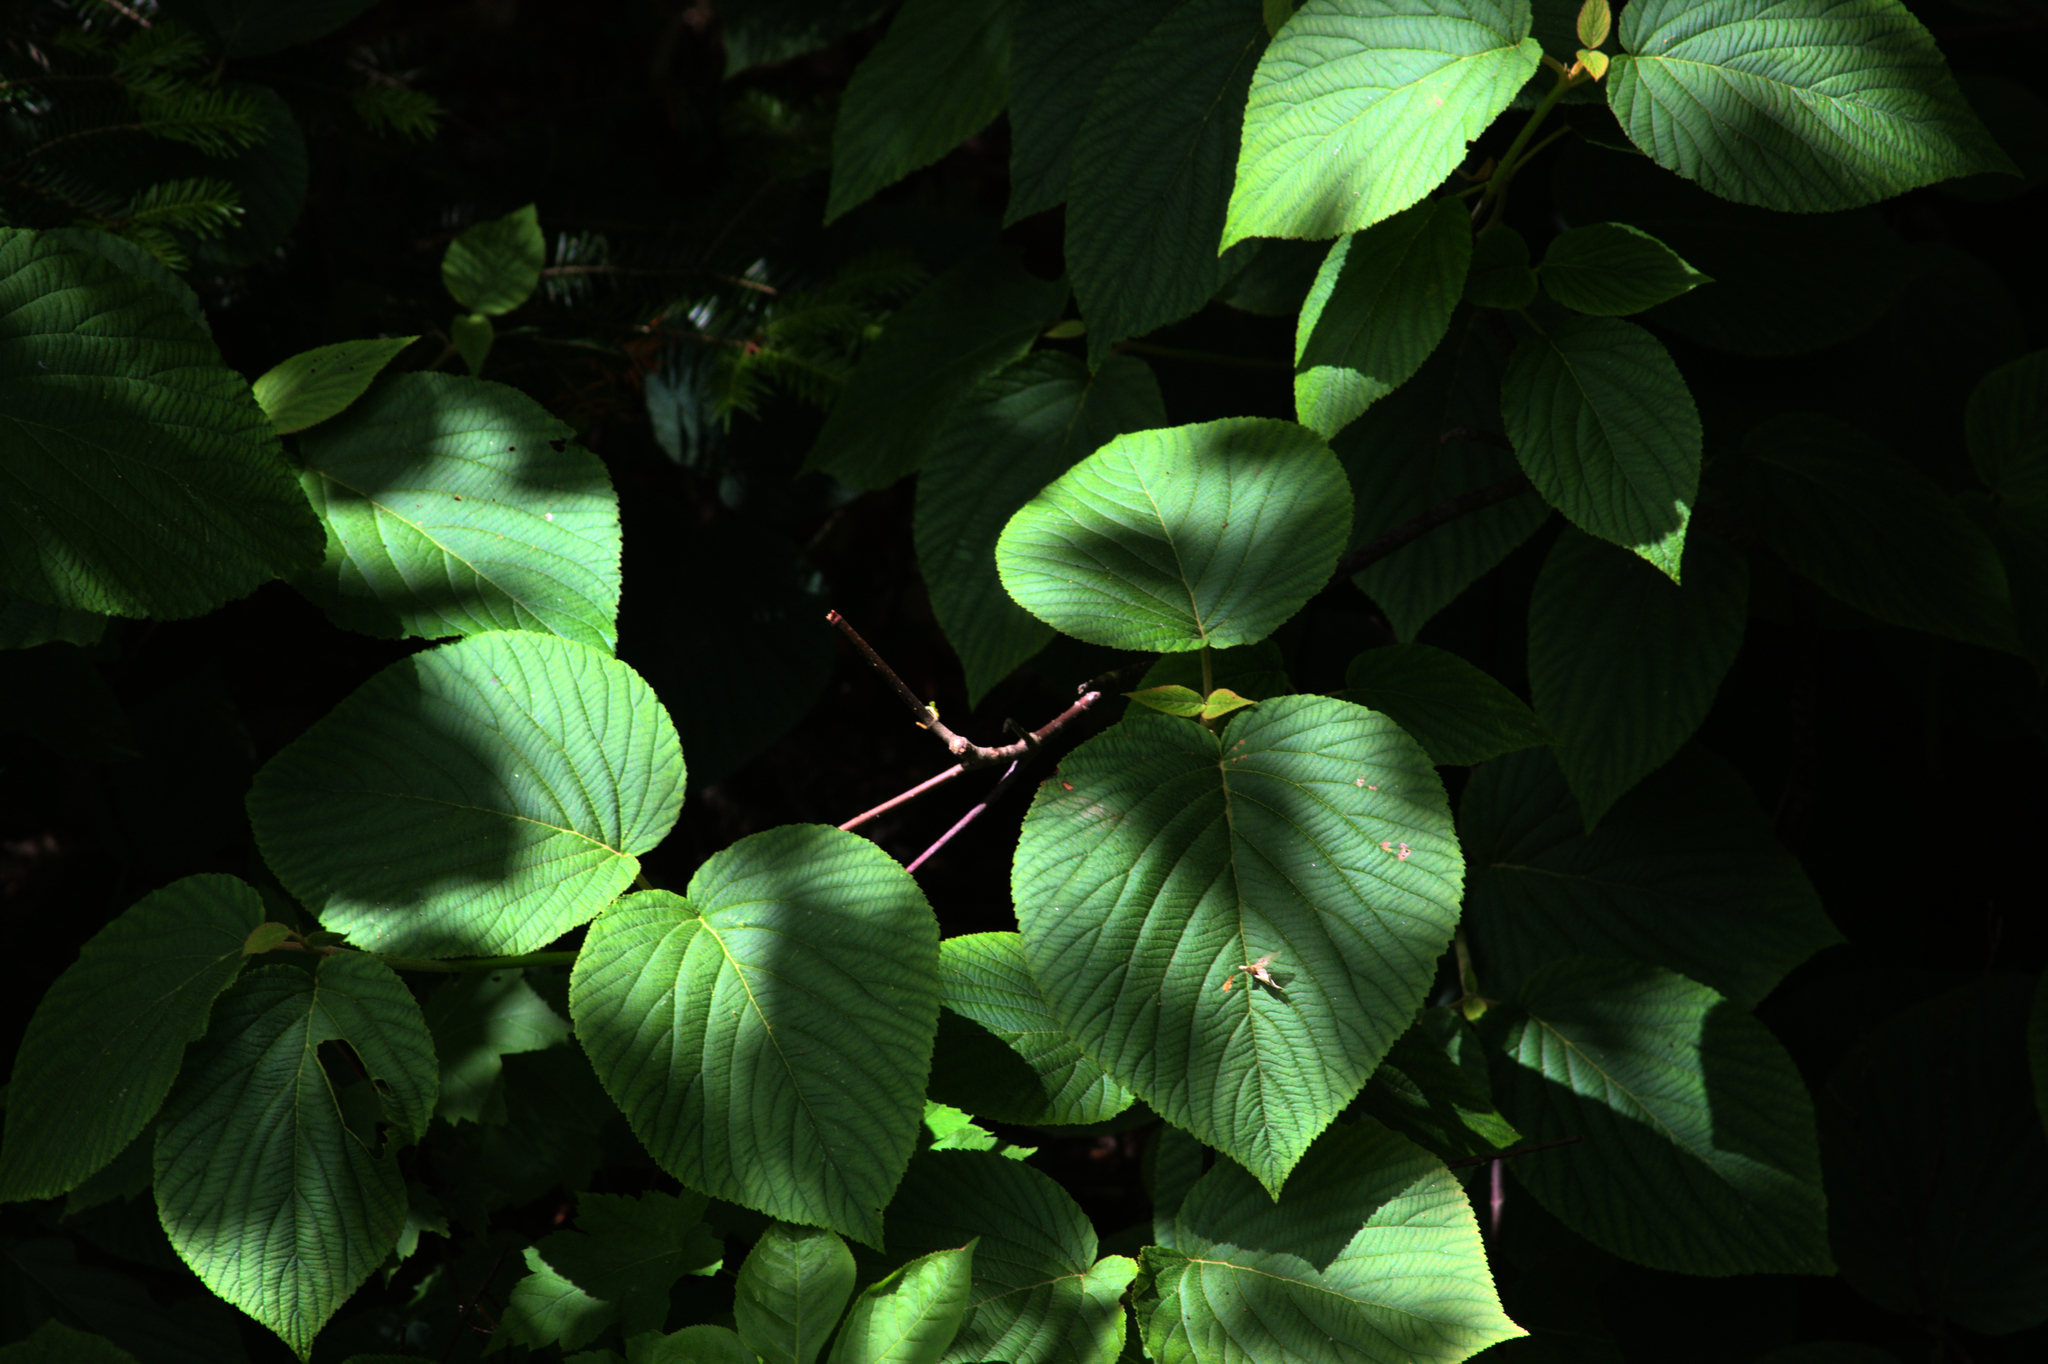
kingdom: Plantae
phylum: Tracheophyta
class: Magnoliopsida
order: Dipsacales
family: Viburnaceae
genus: Viburnum
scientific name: Viburnum lantanoides
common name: Hobblebush
